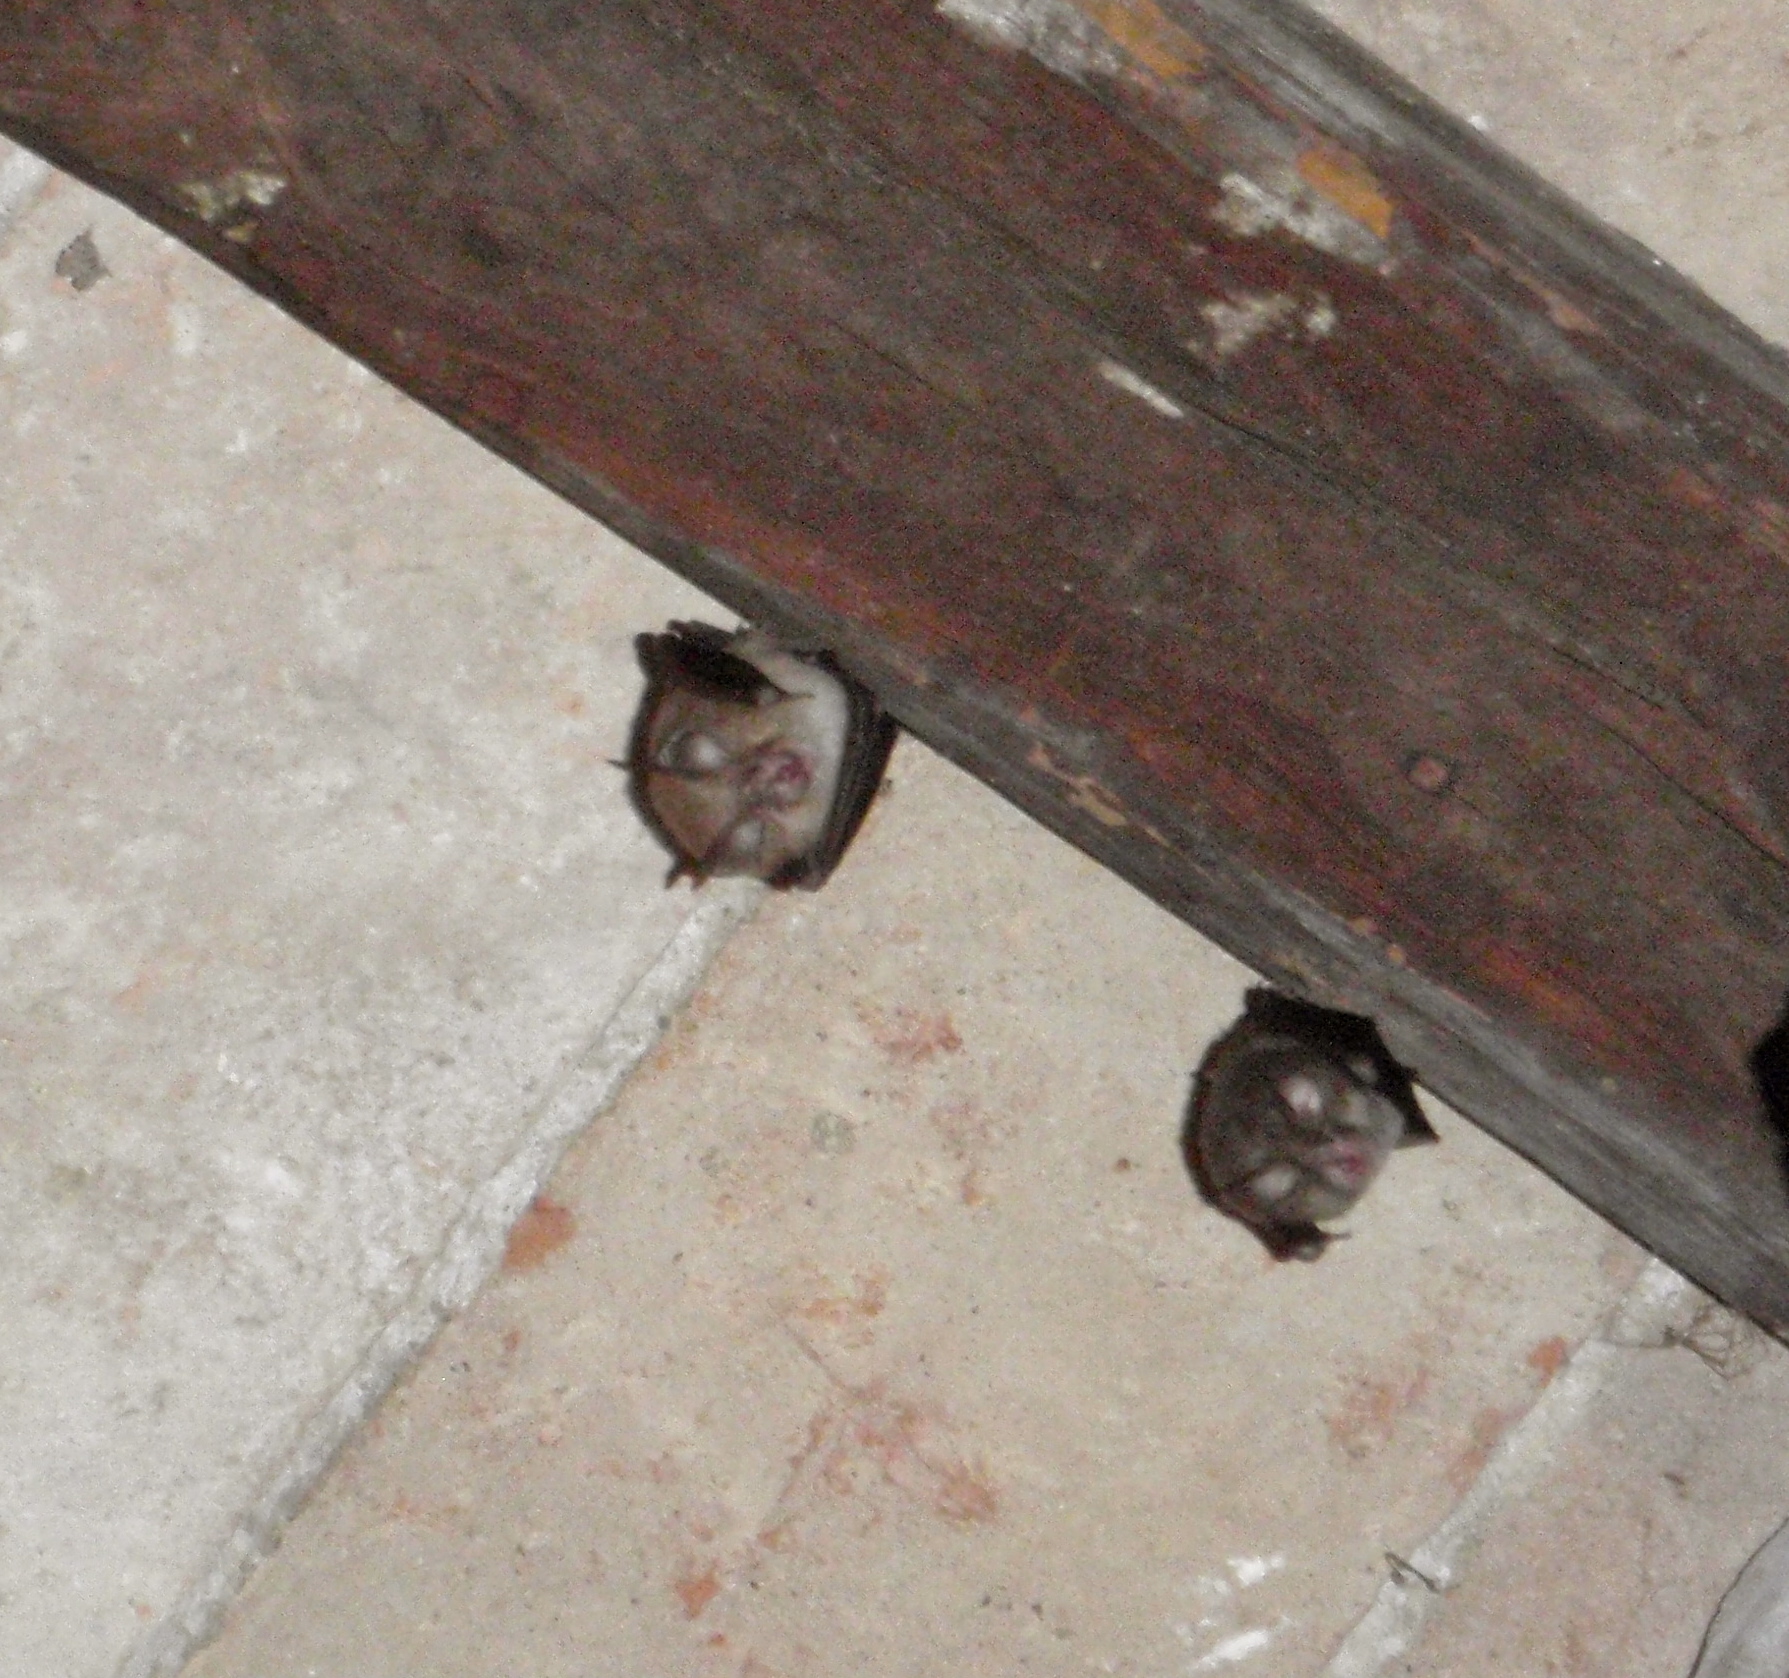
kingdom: Animalia
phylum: Chordata
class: Mammalia
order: Chiroptera
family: Rhinolophidae
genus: Rhinolophus
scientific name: Rhinolophus
